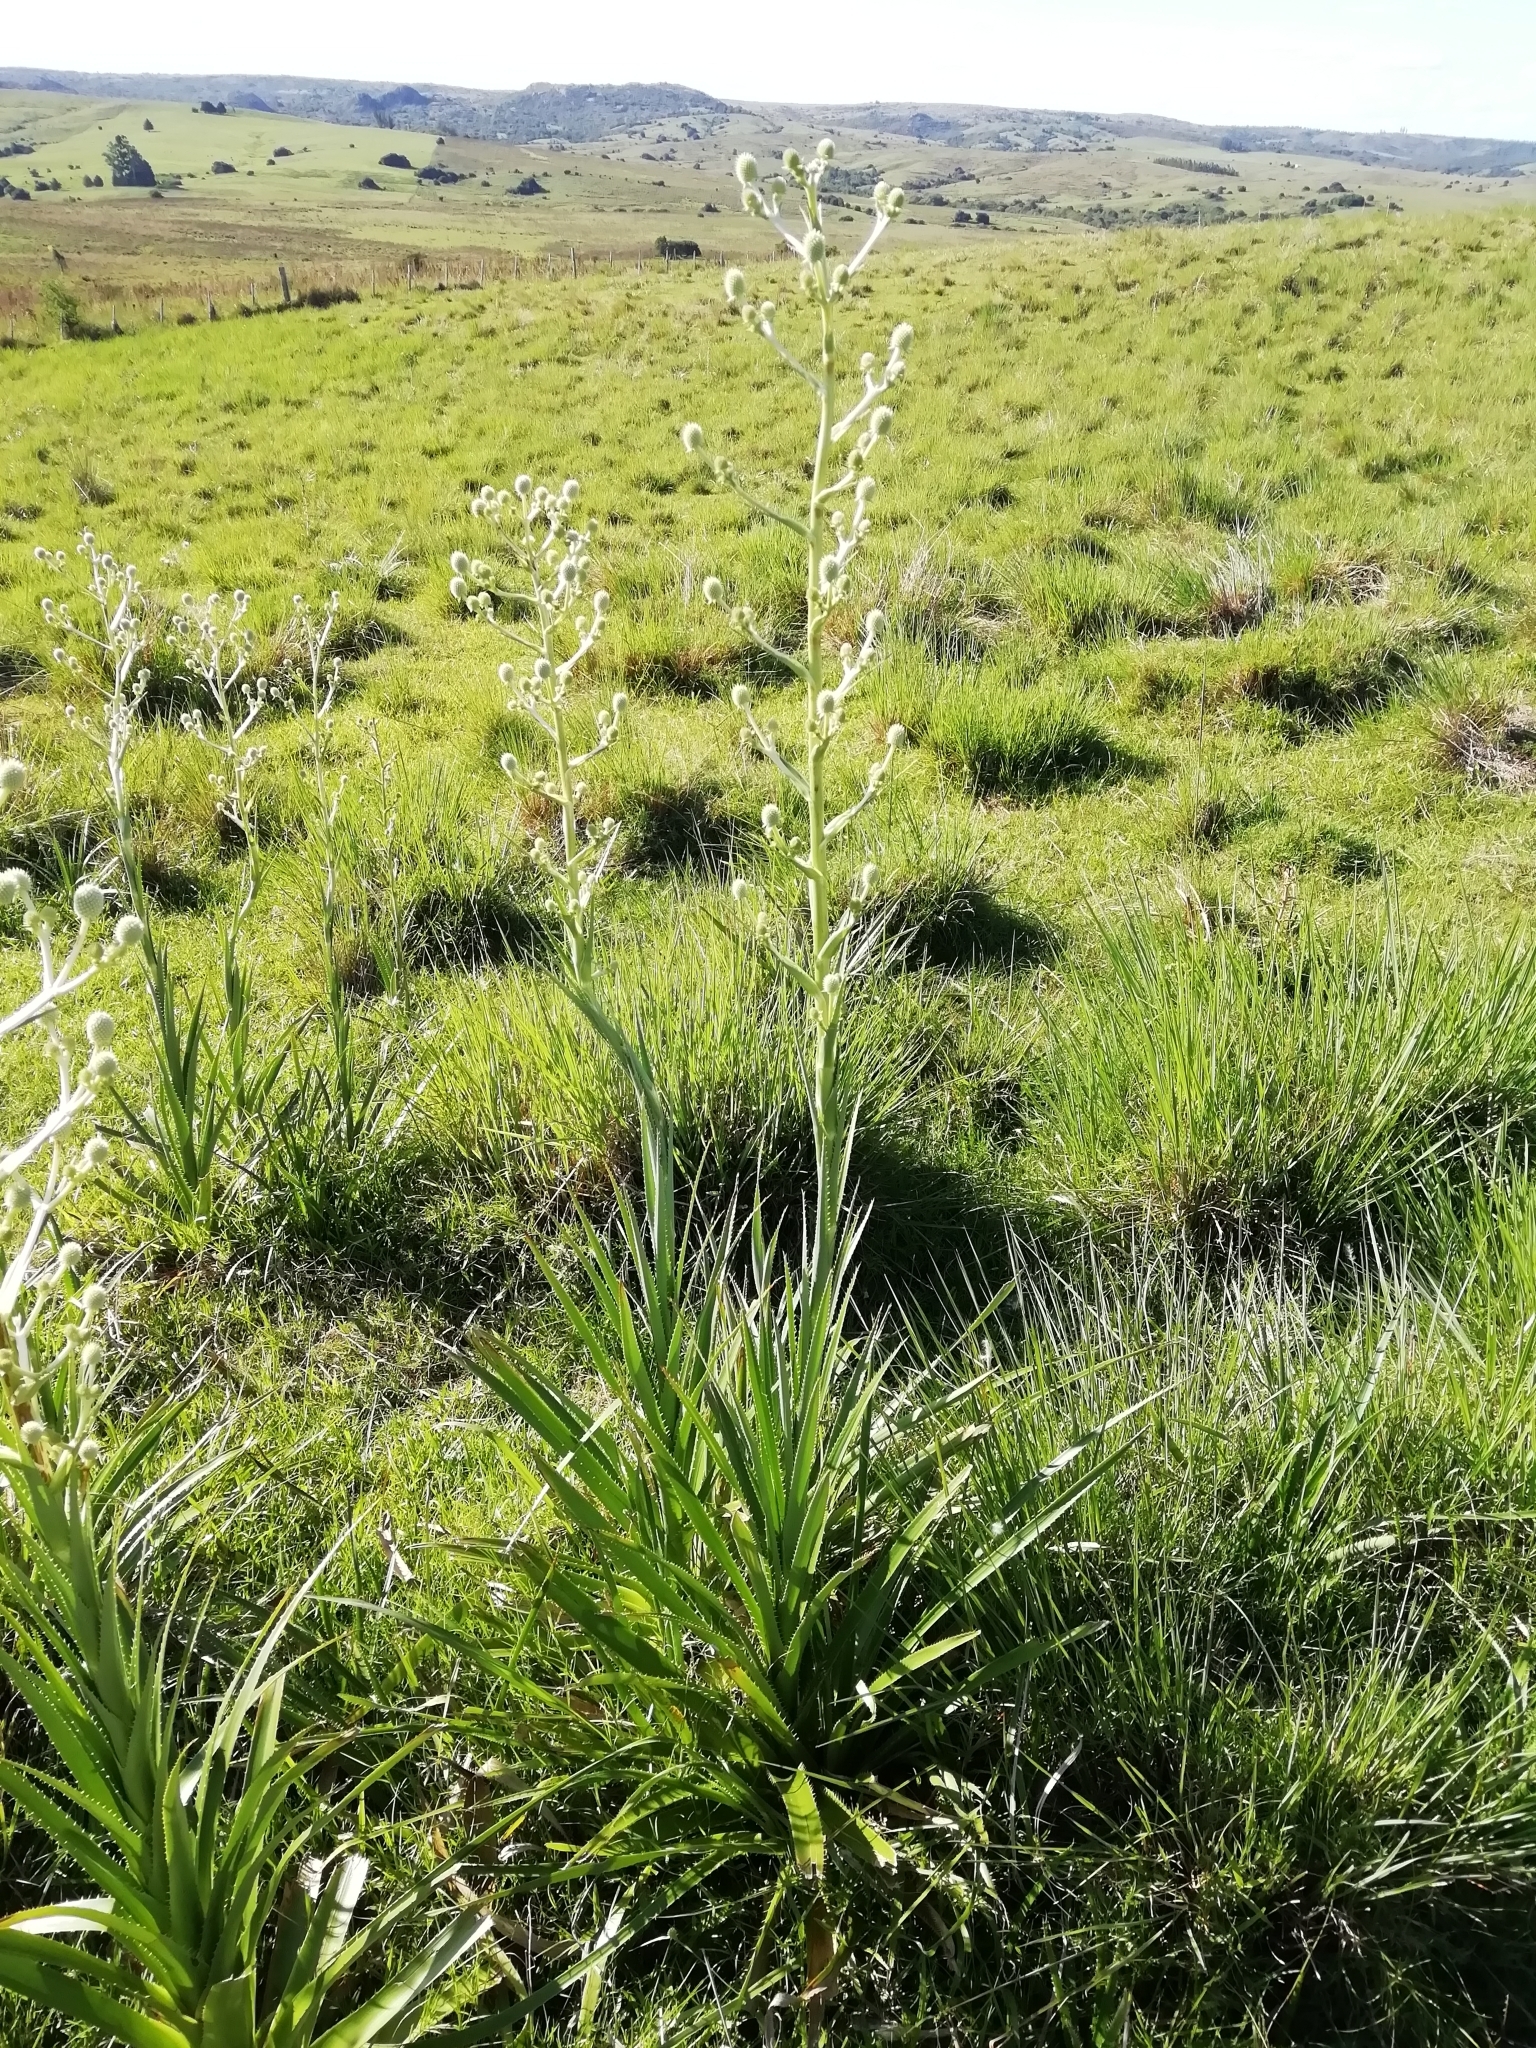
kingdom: Plantae
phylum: Tracheophyta
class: Magnoliopsida
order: Apiales
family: Apiaceae
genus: Eryngium
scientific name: Eryngium eburneum
